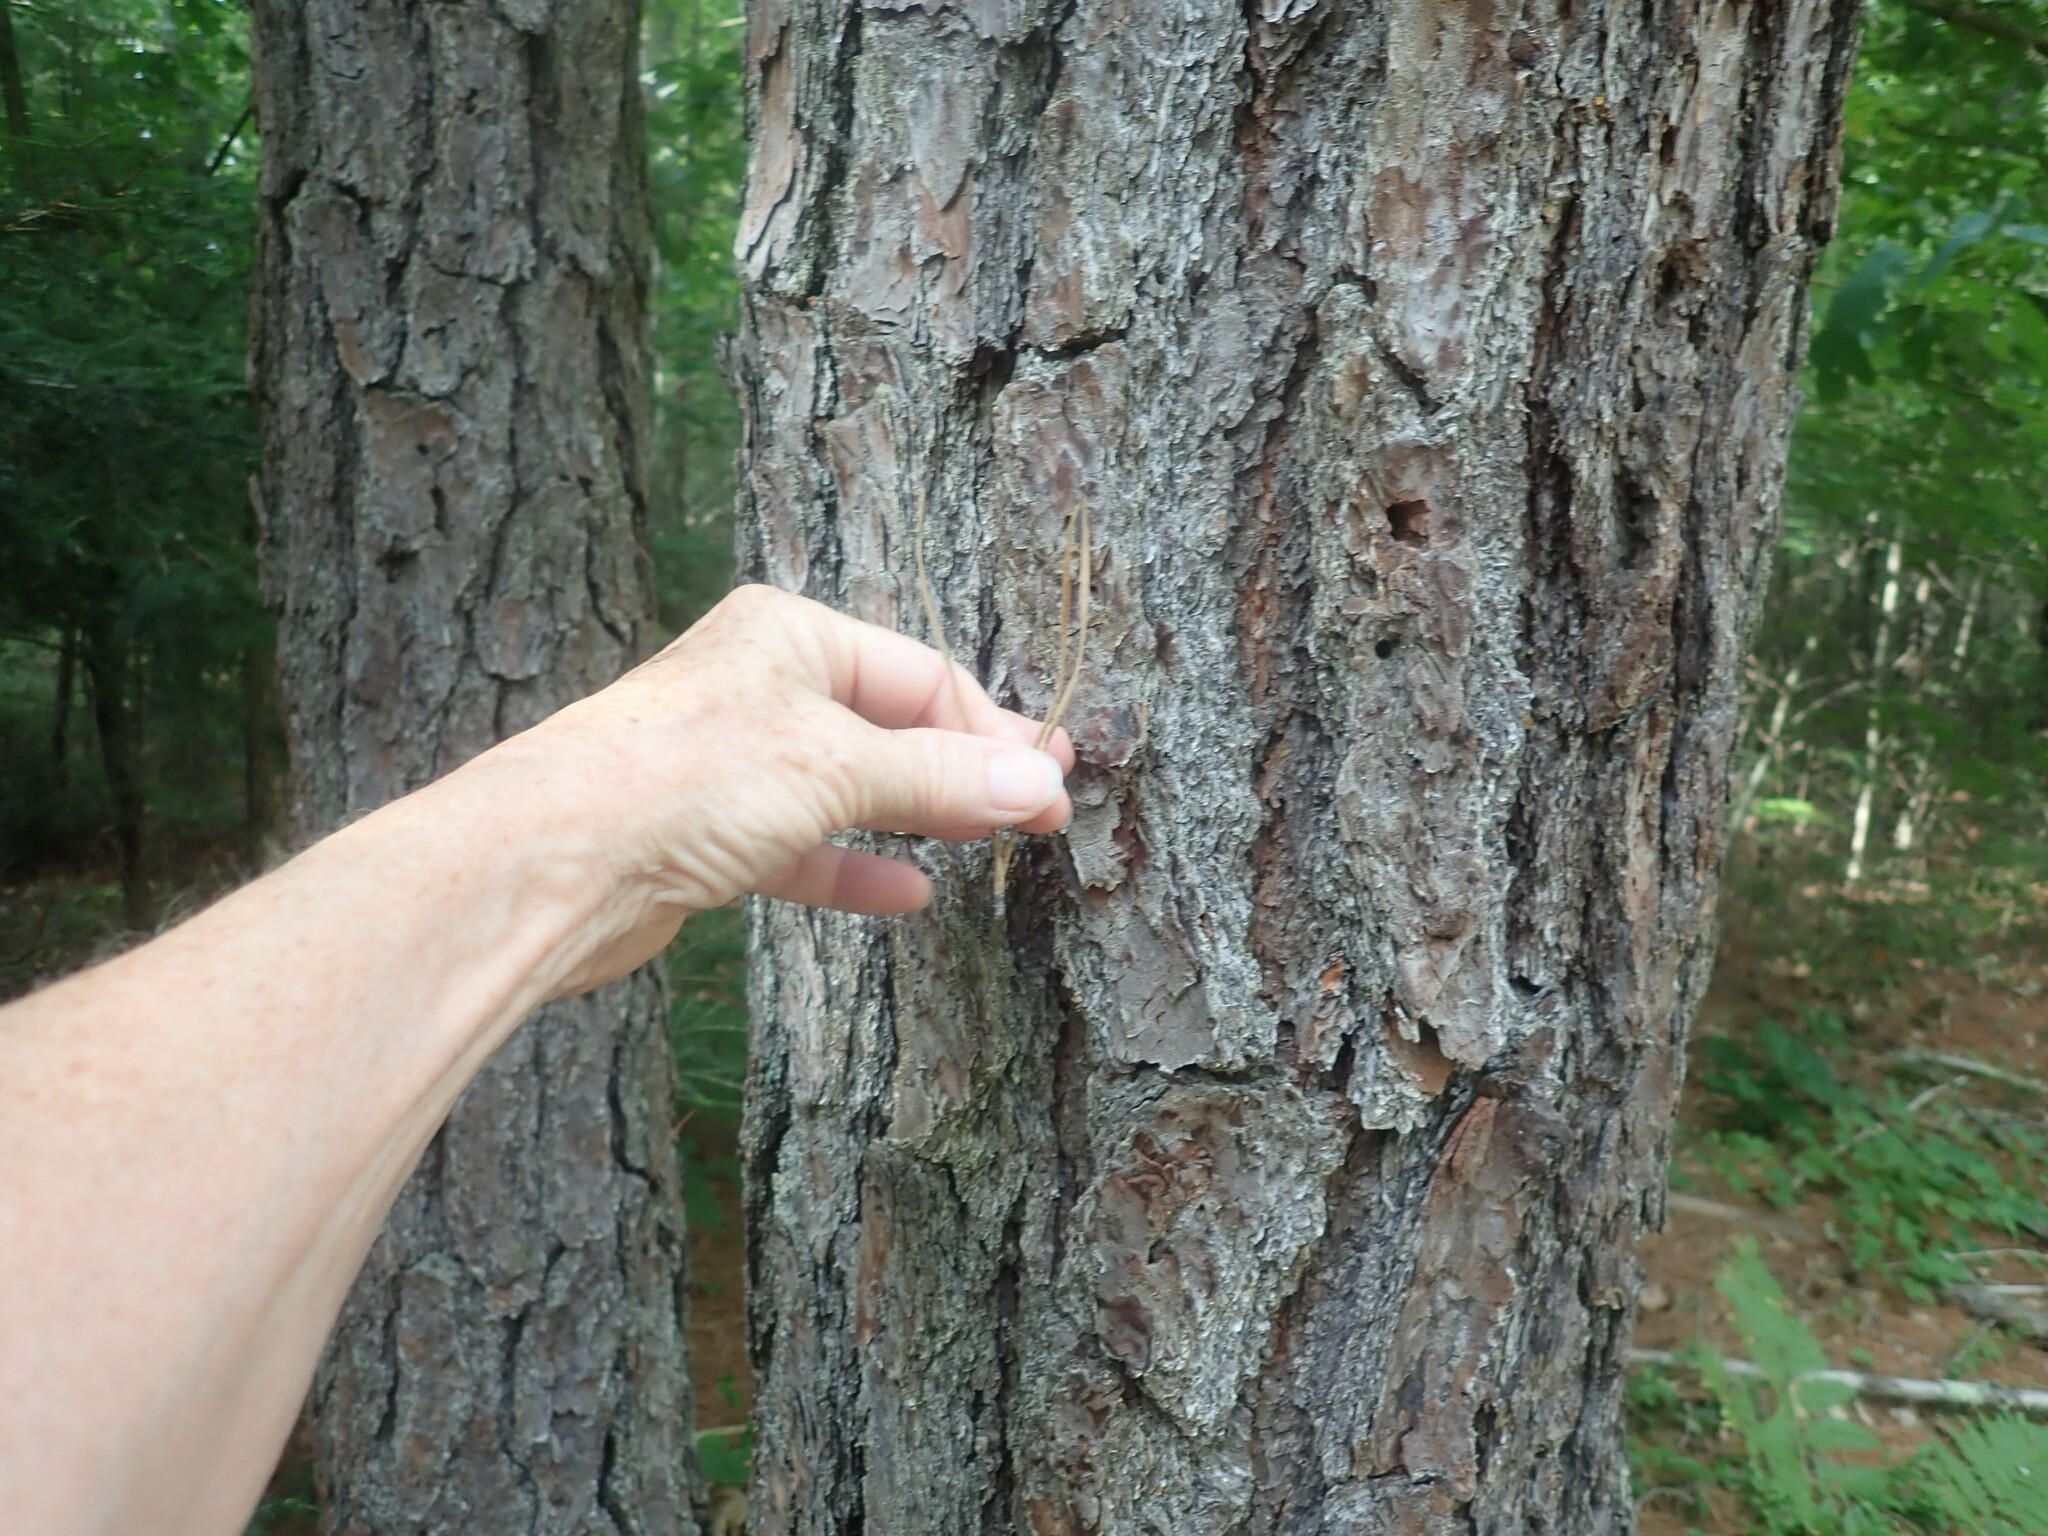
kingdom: Plantae
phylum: Tracheophyta
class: Pinopsida
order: Pinales
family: Pinaceae
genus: Pinus
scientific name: Pinus rigida
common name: Pitch pine
